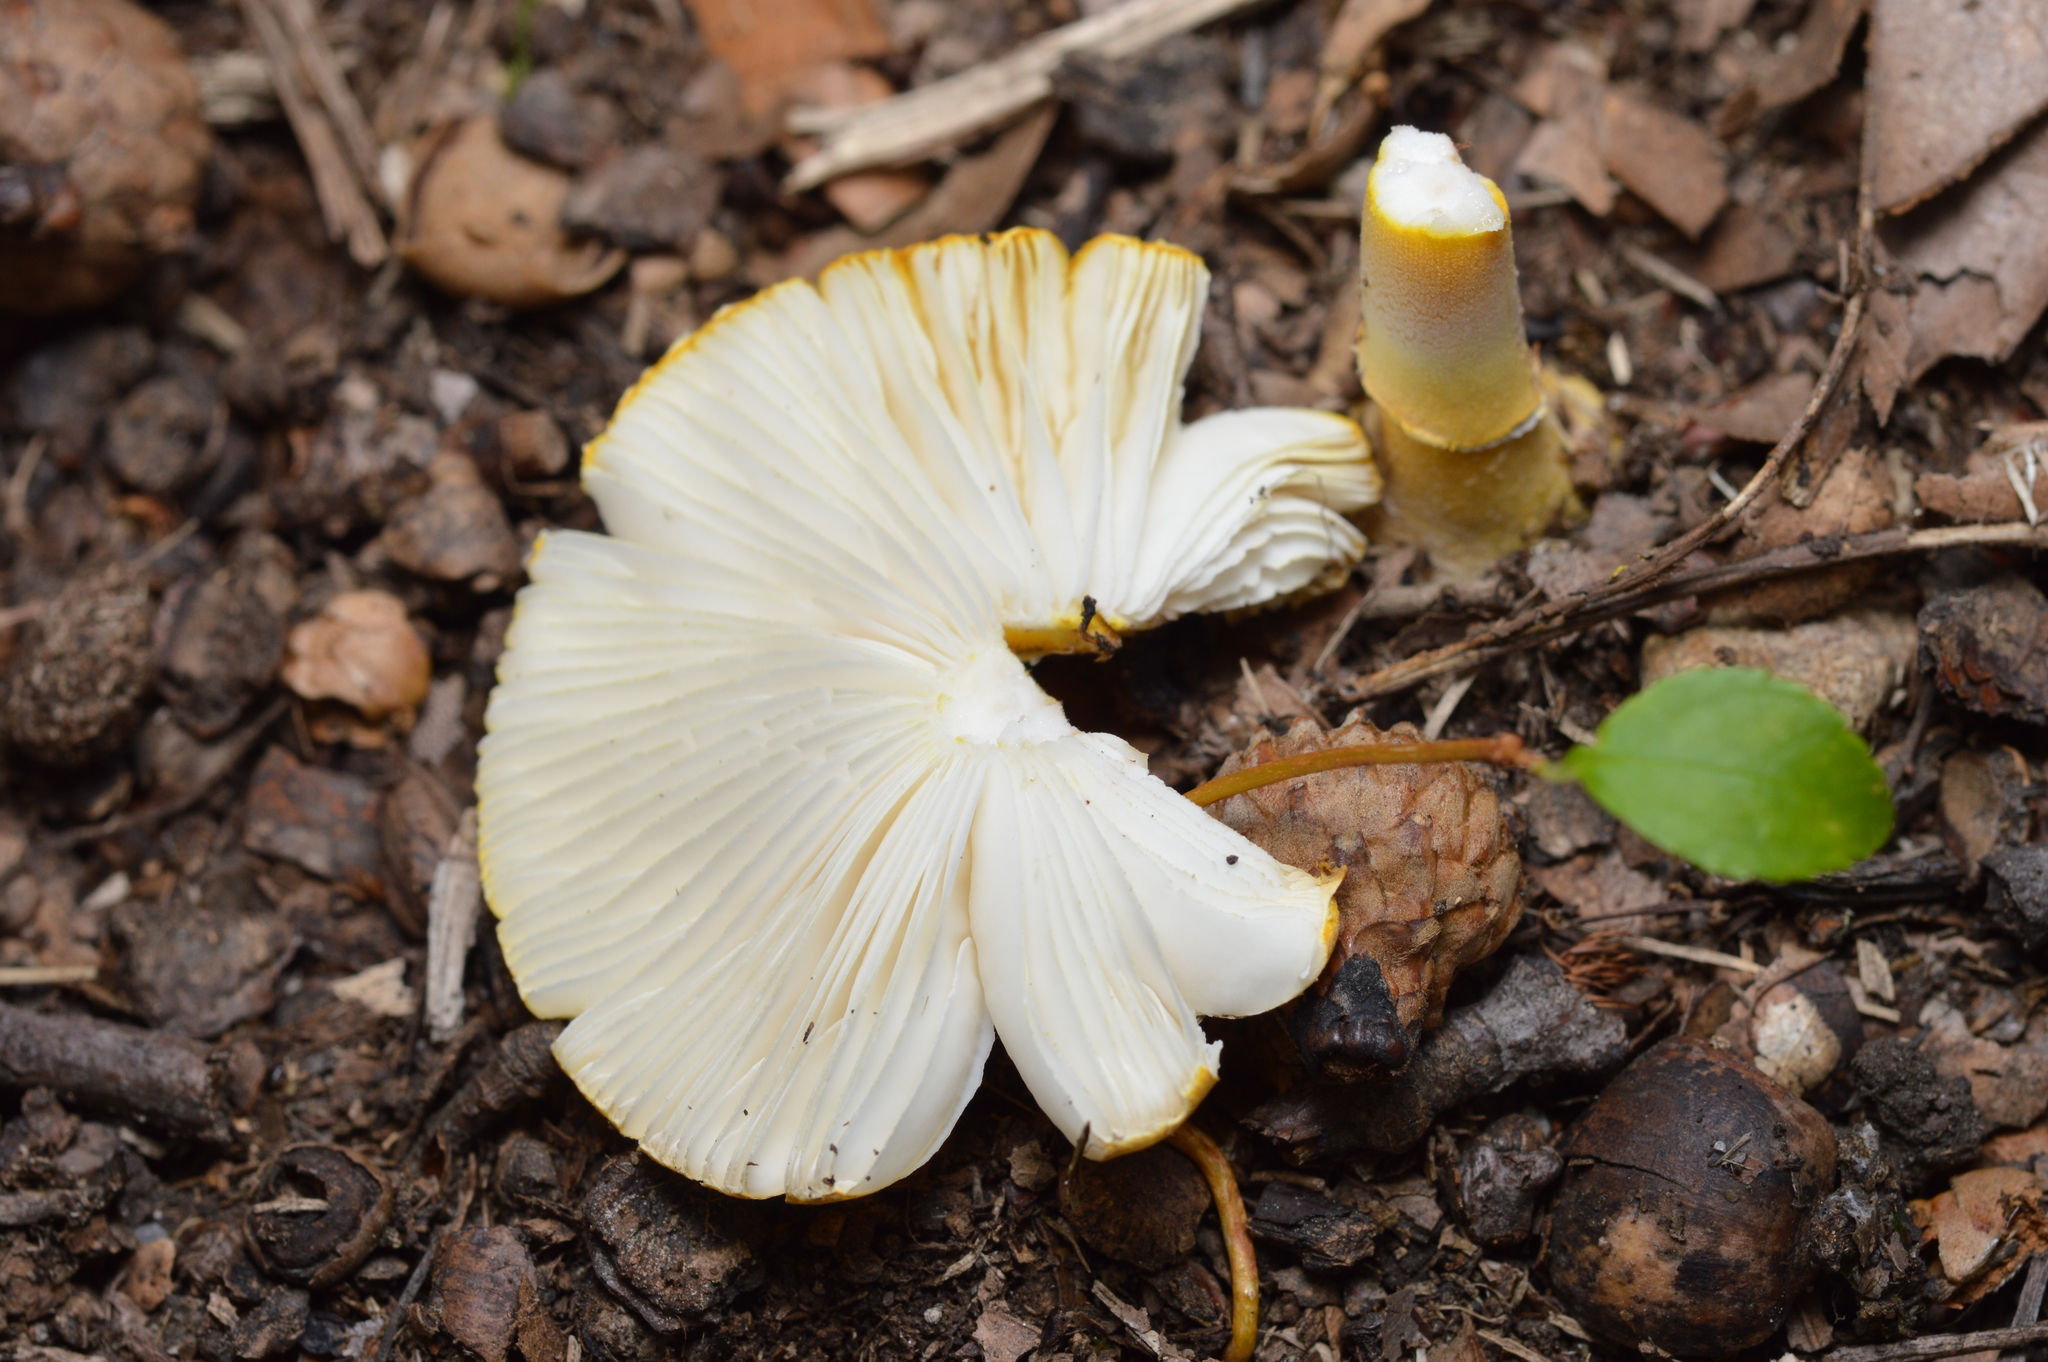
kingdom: Fungi
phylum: Basidiomycota
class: Agaricomycetes
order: Agaricales
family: Amanitaceae
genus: Amanita
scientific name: Amanita flavoconia
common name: Yellow patches
